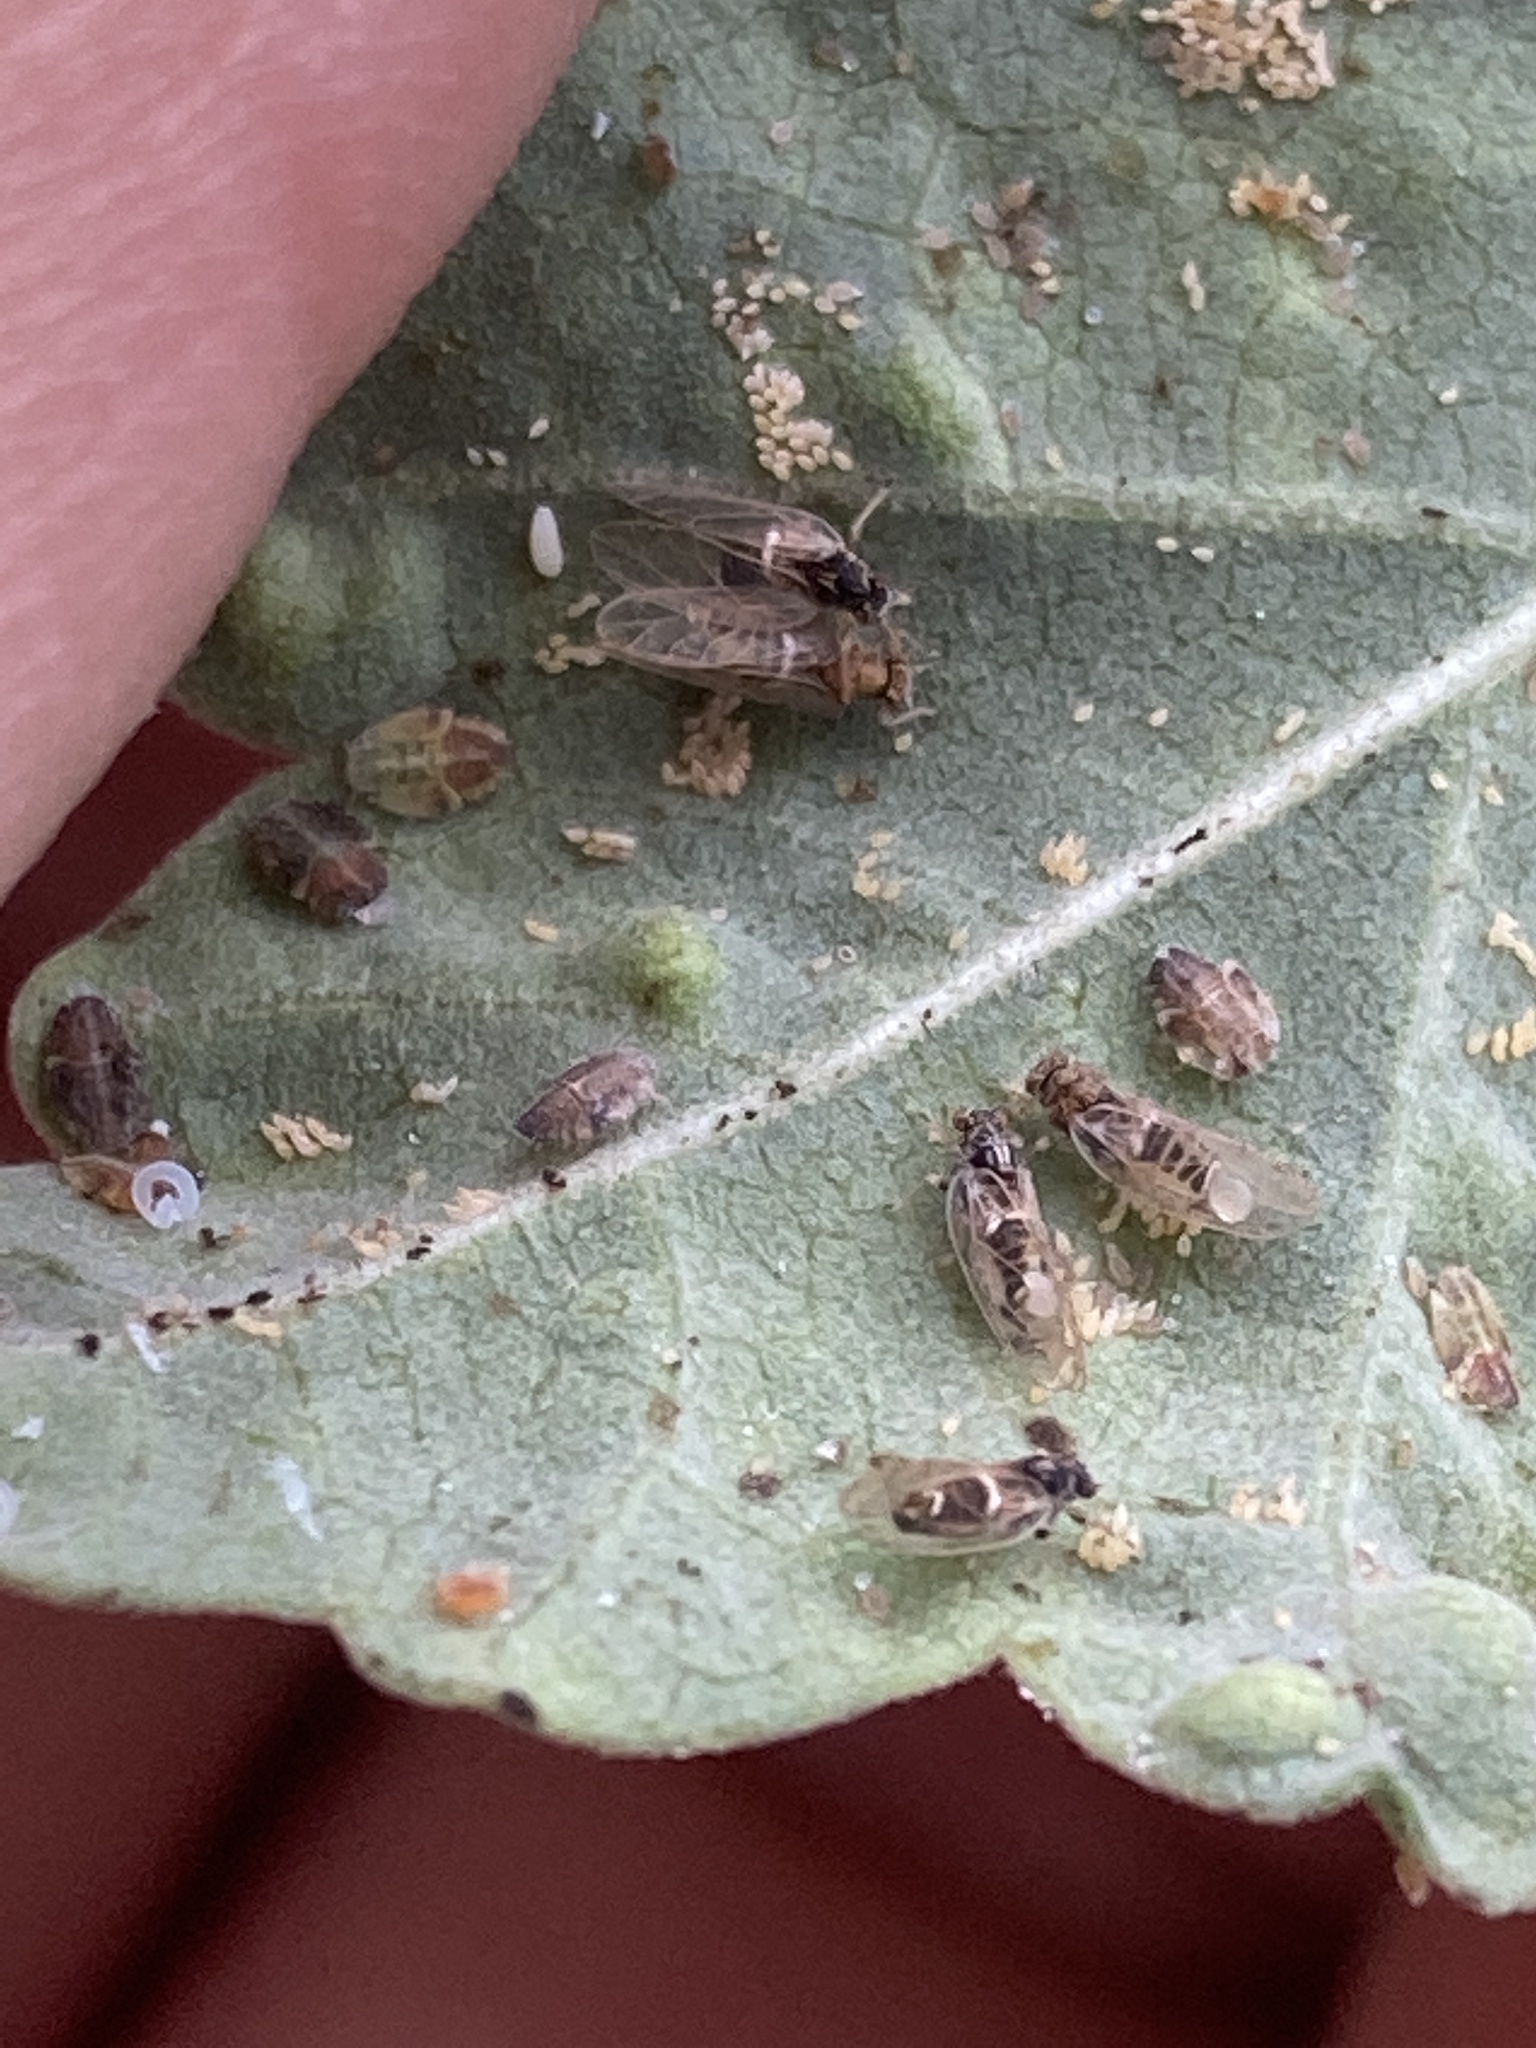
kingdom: Animalia
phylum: Arthropoda
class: Insecta
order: Hemiptera
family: Triozidae
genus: Bactericera
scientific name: Bactericera lavaterae
